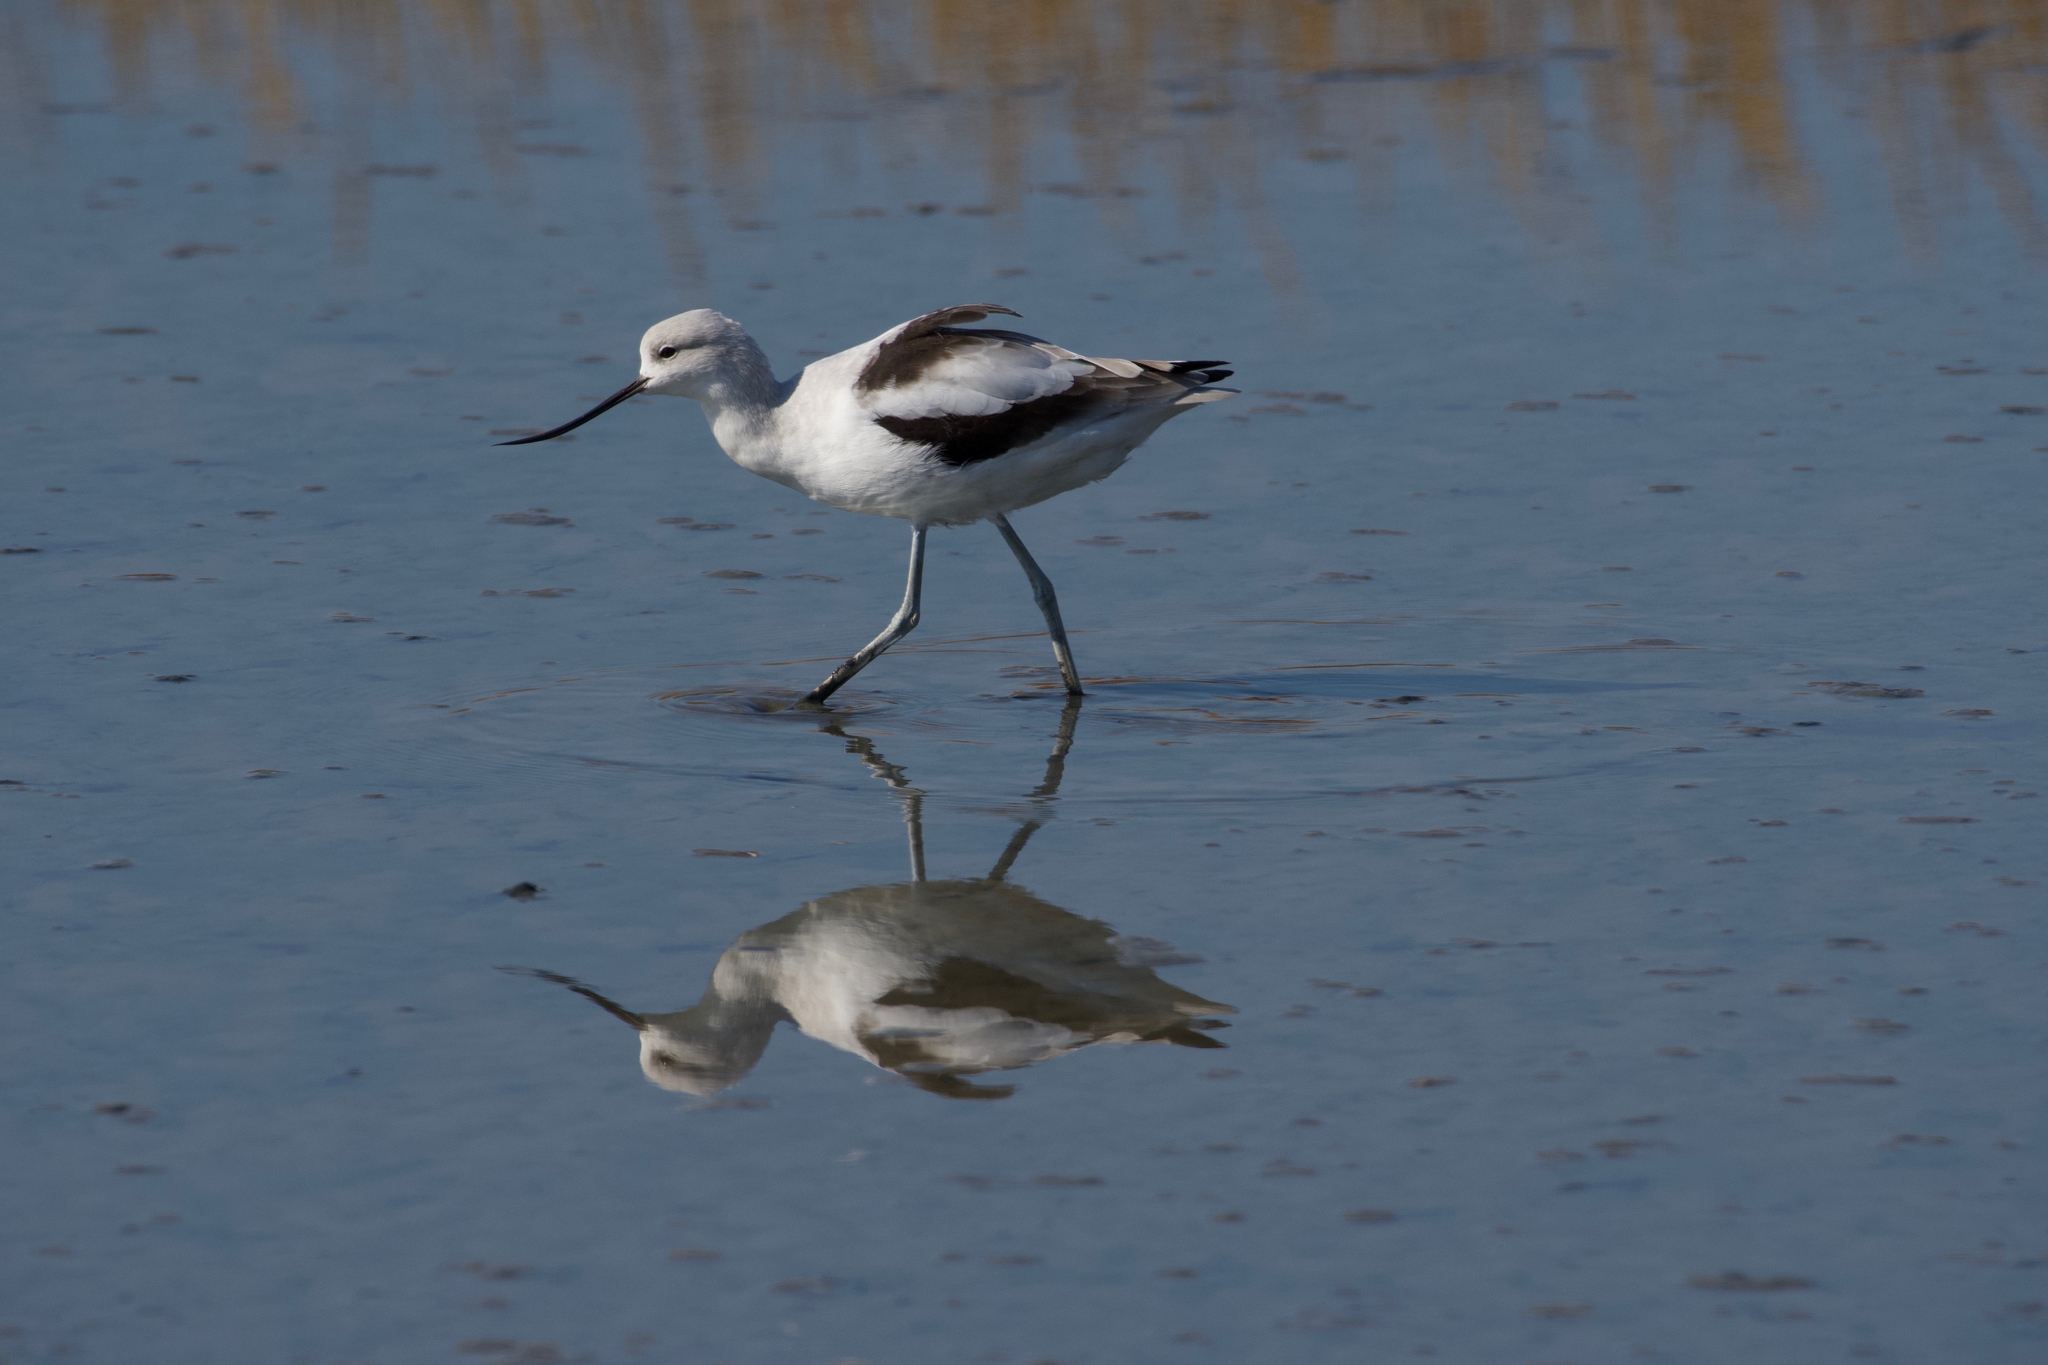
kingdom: Animalia
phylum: Chordata
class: Aves
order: Charadriiformes
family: Recurvirostridae
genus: Recurvirostra
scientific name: Recurvirostra americana
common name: American avocet
